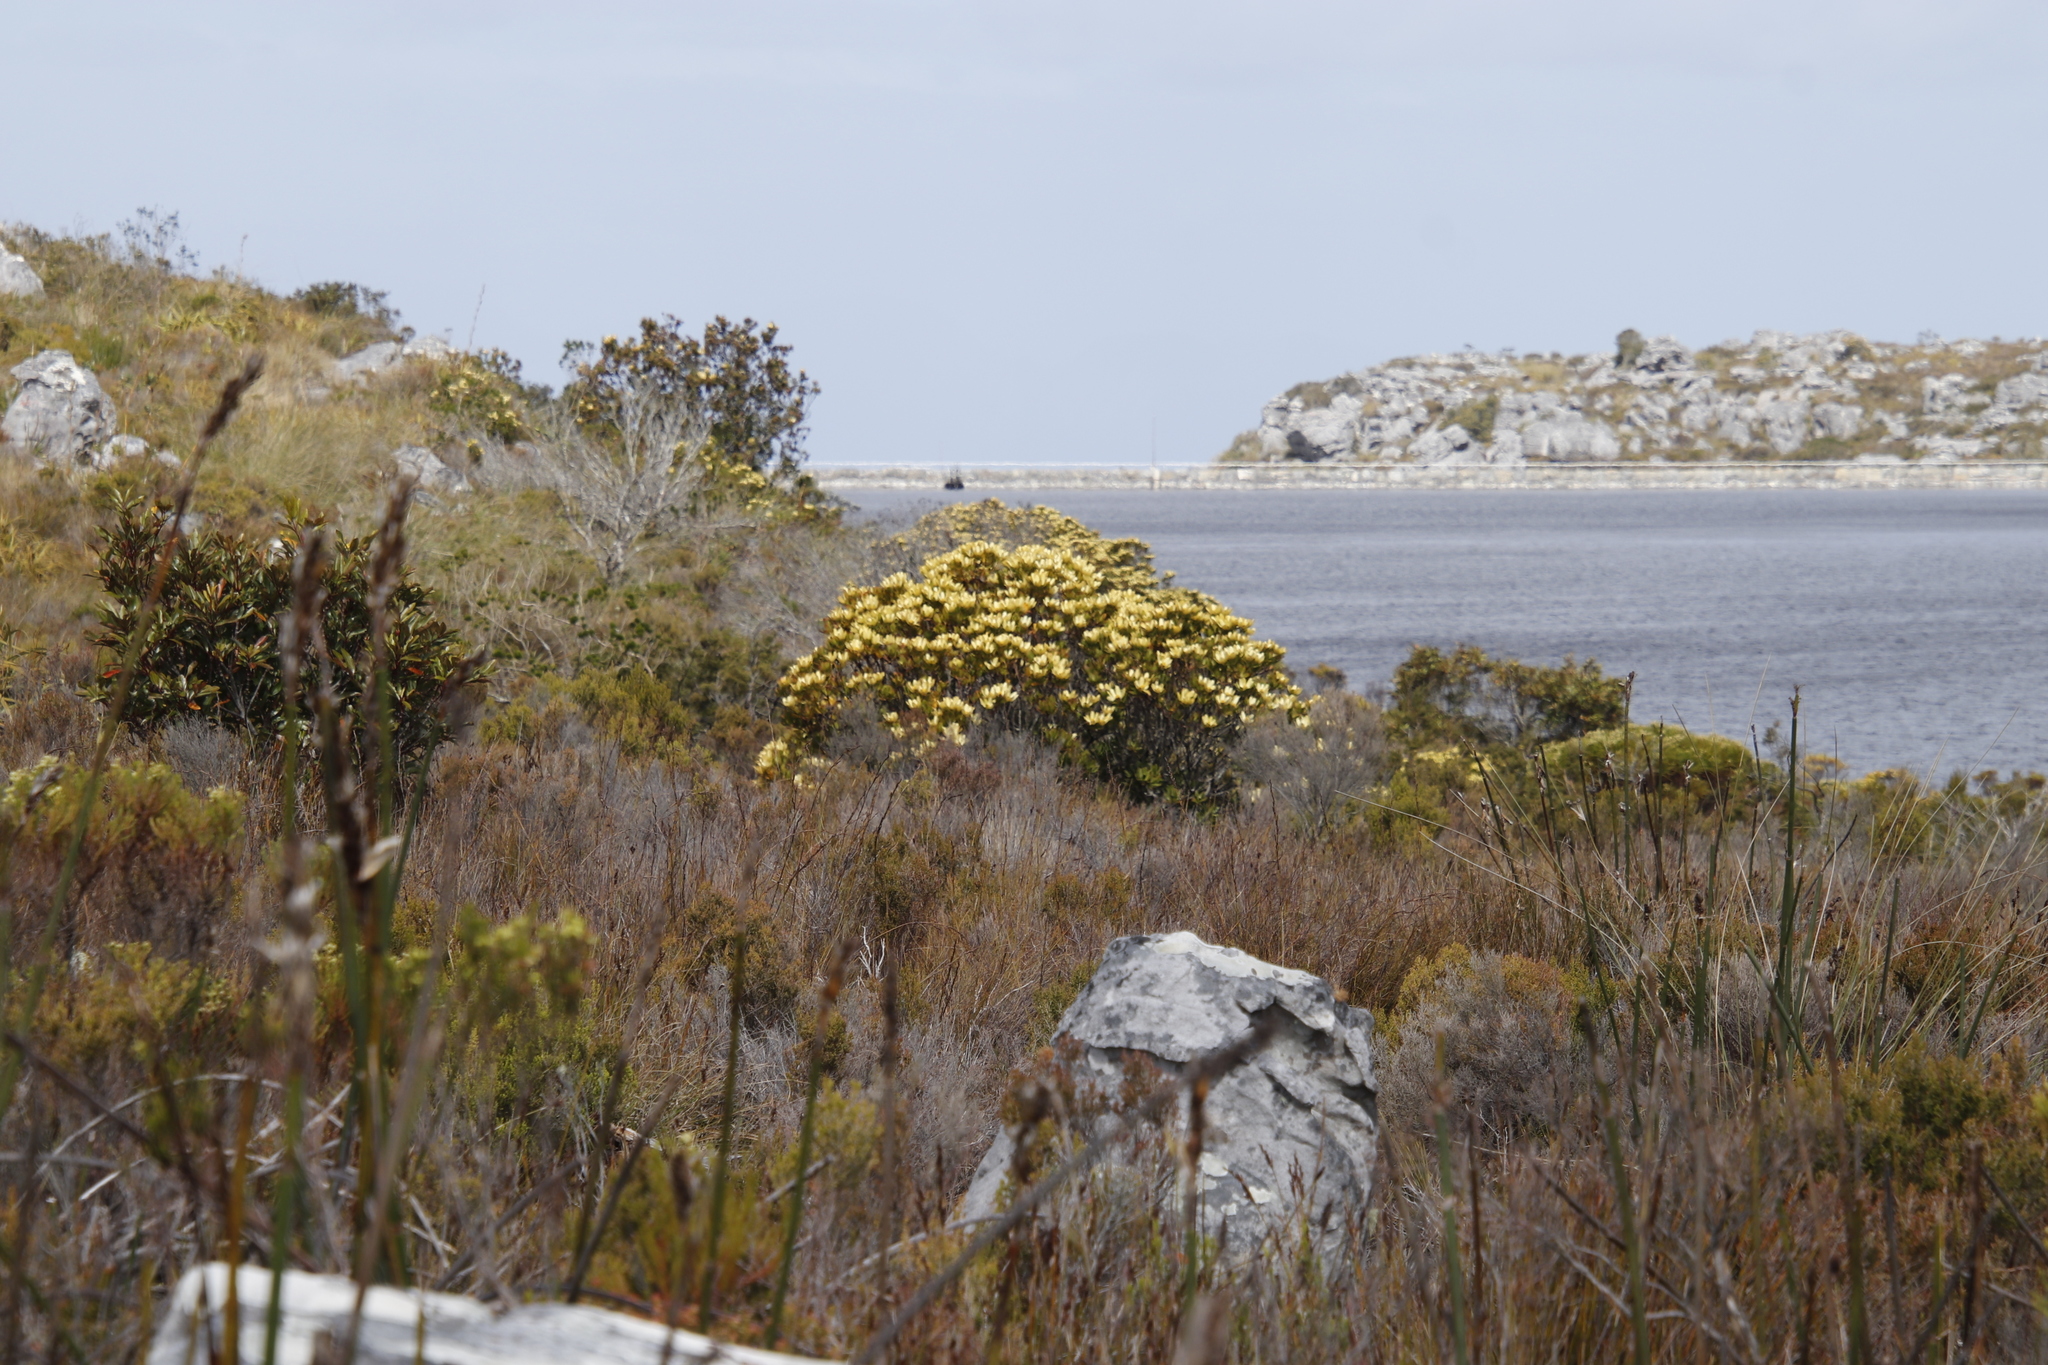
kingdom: Plantae
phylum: Tracheophyta
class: Magnoliopsida
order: Proteales
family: Proteaceae
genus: Leucadendron
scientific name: Leucadendron strobilinum
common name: Mountain rose
